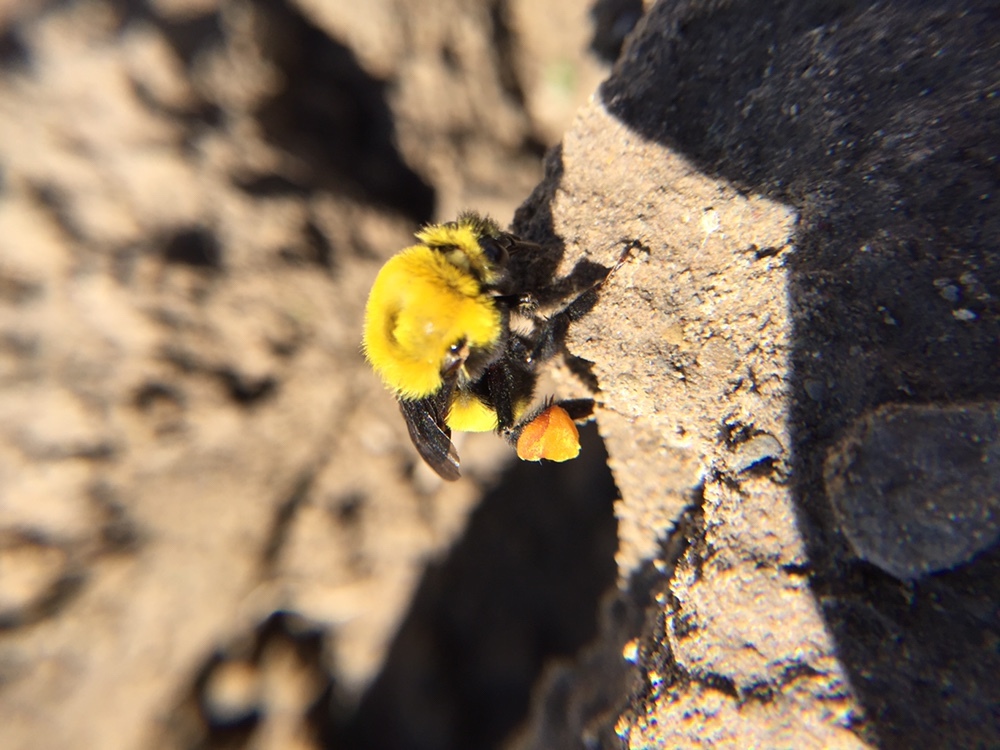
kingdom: Animalia
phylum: Arthropoda
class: Insecta
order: Hymenoptera
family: Apidae
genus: Bombus
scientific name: Bombus morrisoni
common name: Morrison bumble bee
